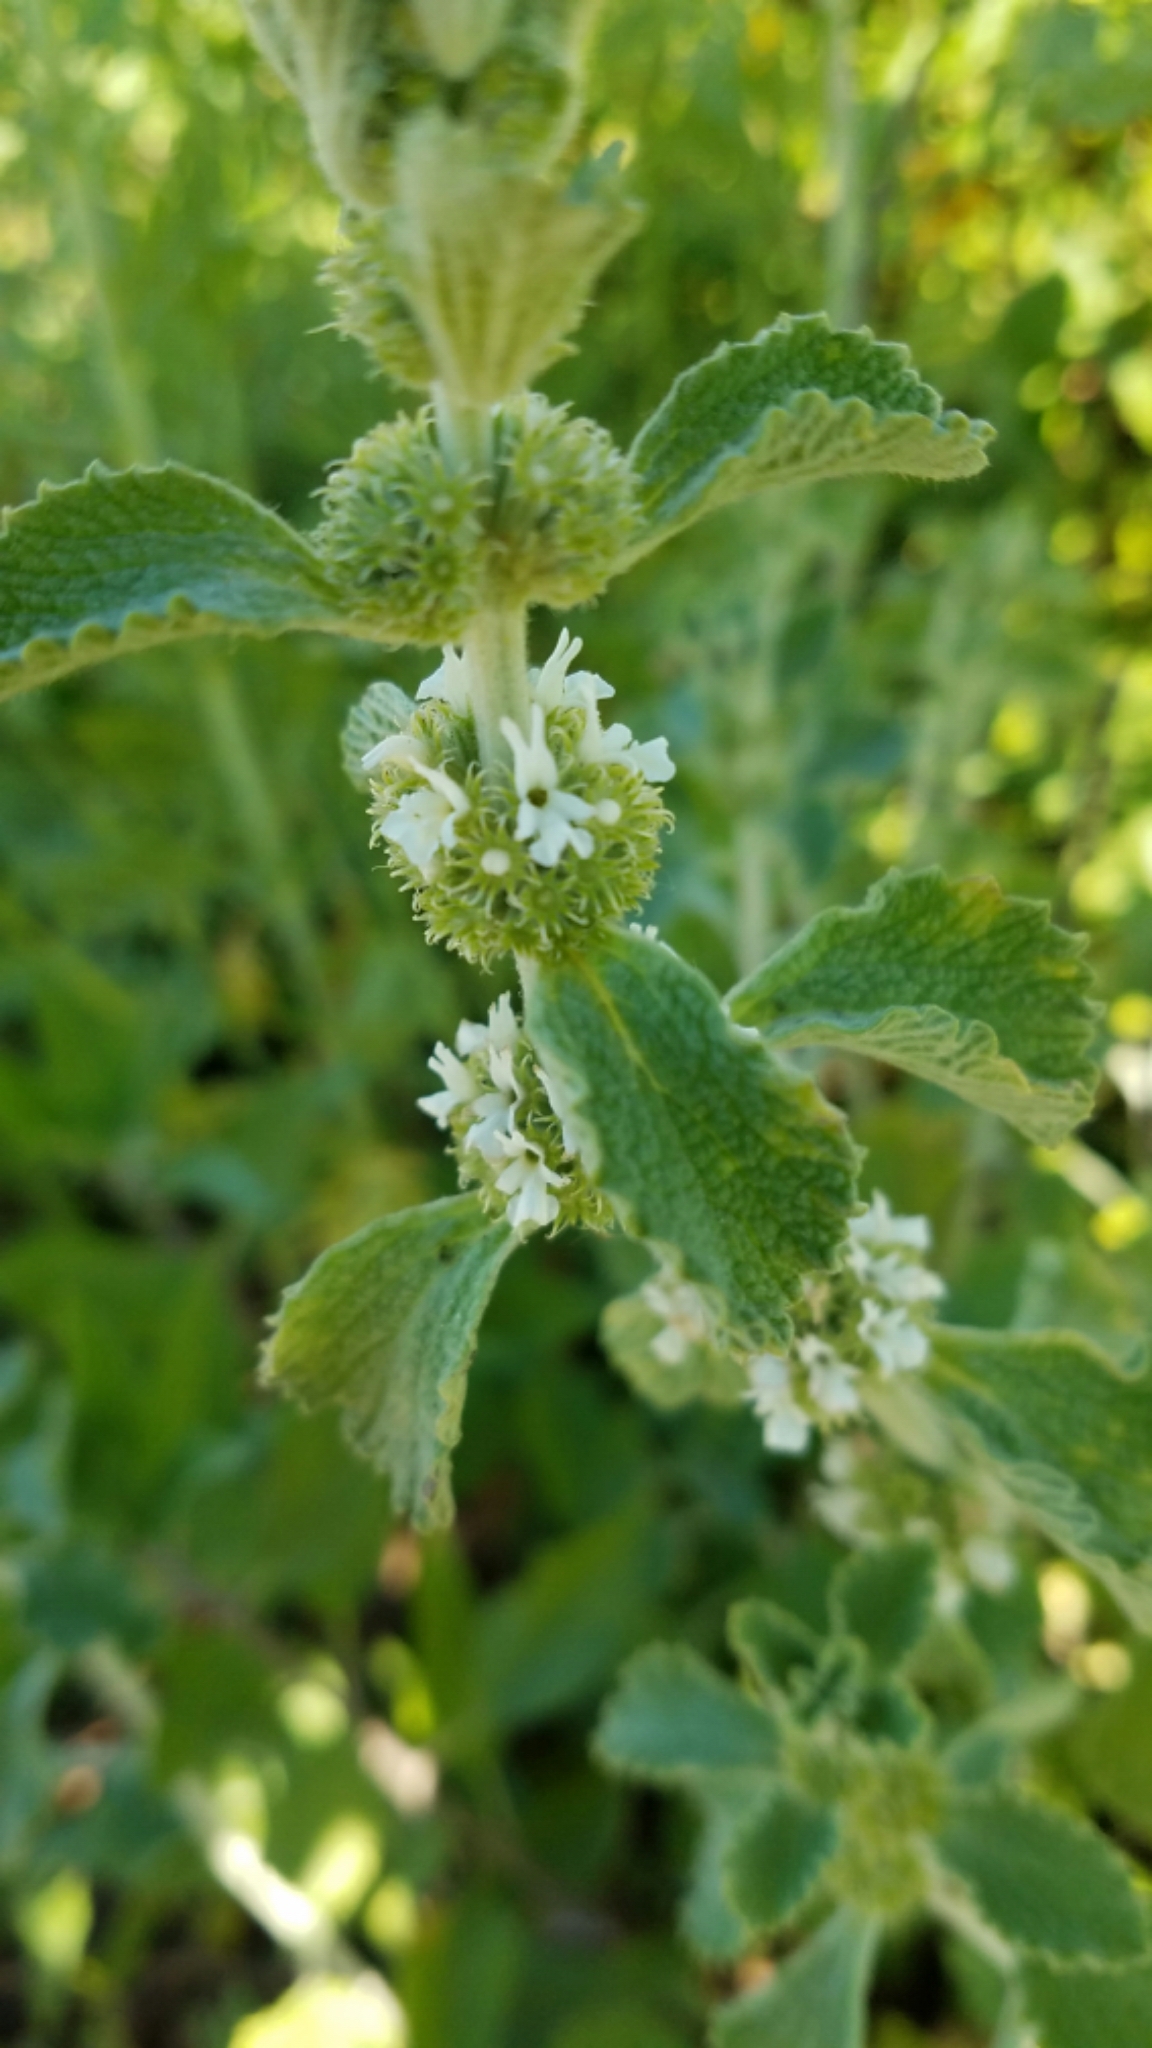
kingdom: Plantae
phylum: Tracheophyta
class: Magnoliopsida
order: Lamiales
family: Lamiaceae
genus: Marrubium
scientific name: Marrubium vulgare
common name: Horehound
